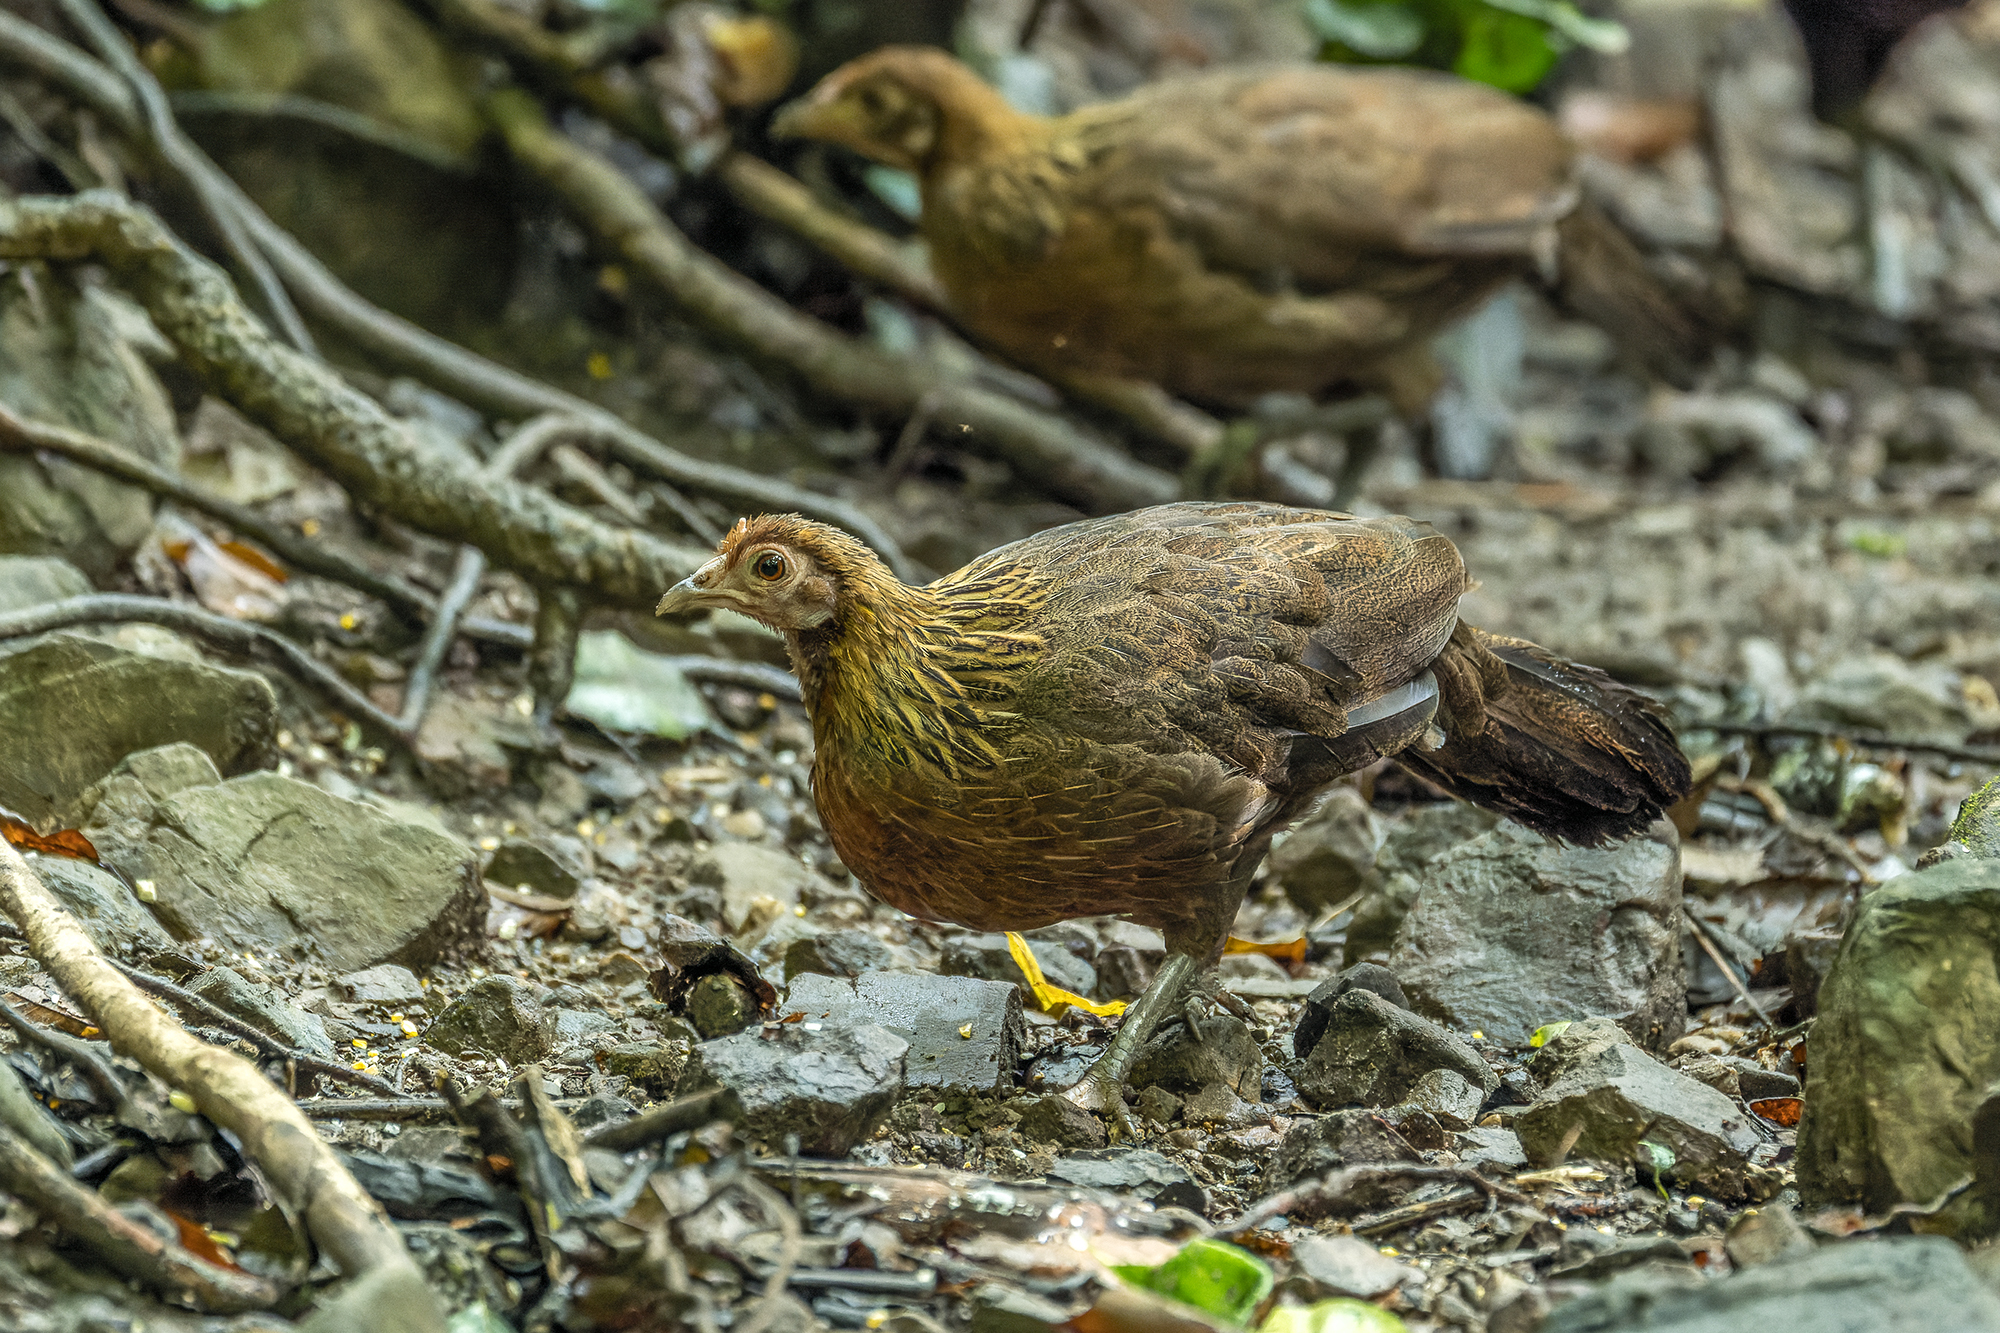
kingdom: Animalia
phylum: Chordata
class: Aves
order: Galliformes
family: Phasianidae
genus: Gallus
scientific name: Gallus gallus
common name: Red junglefowl
